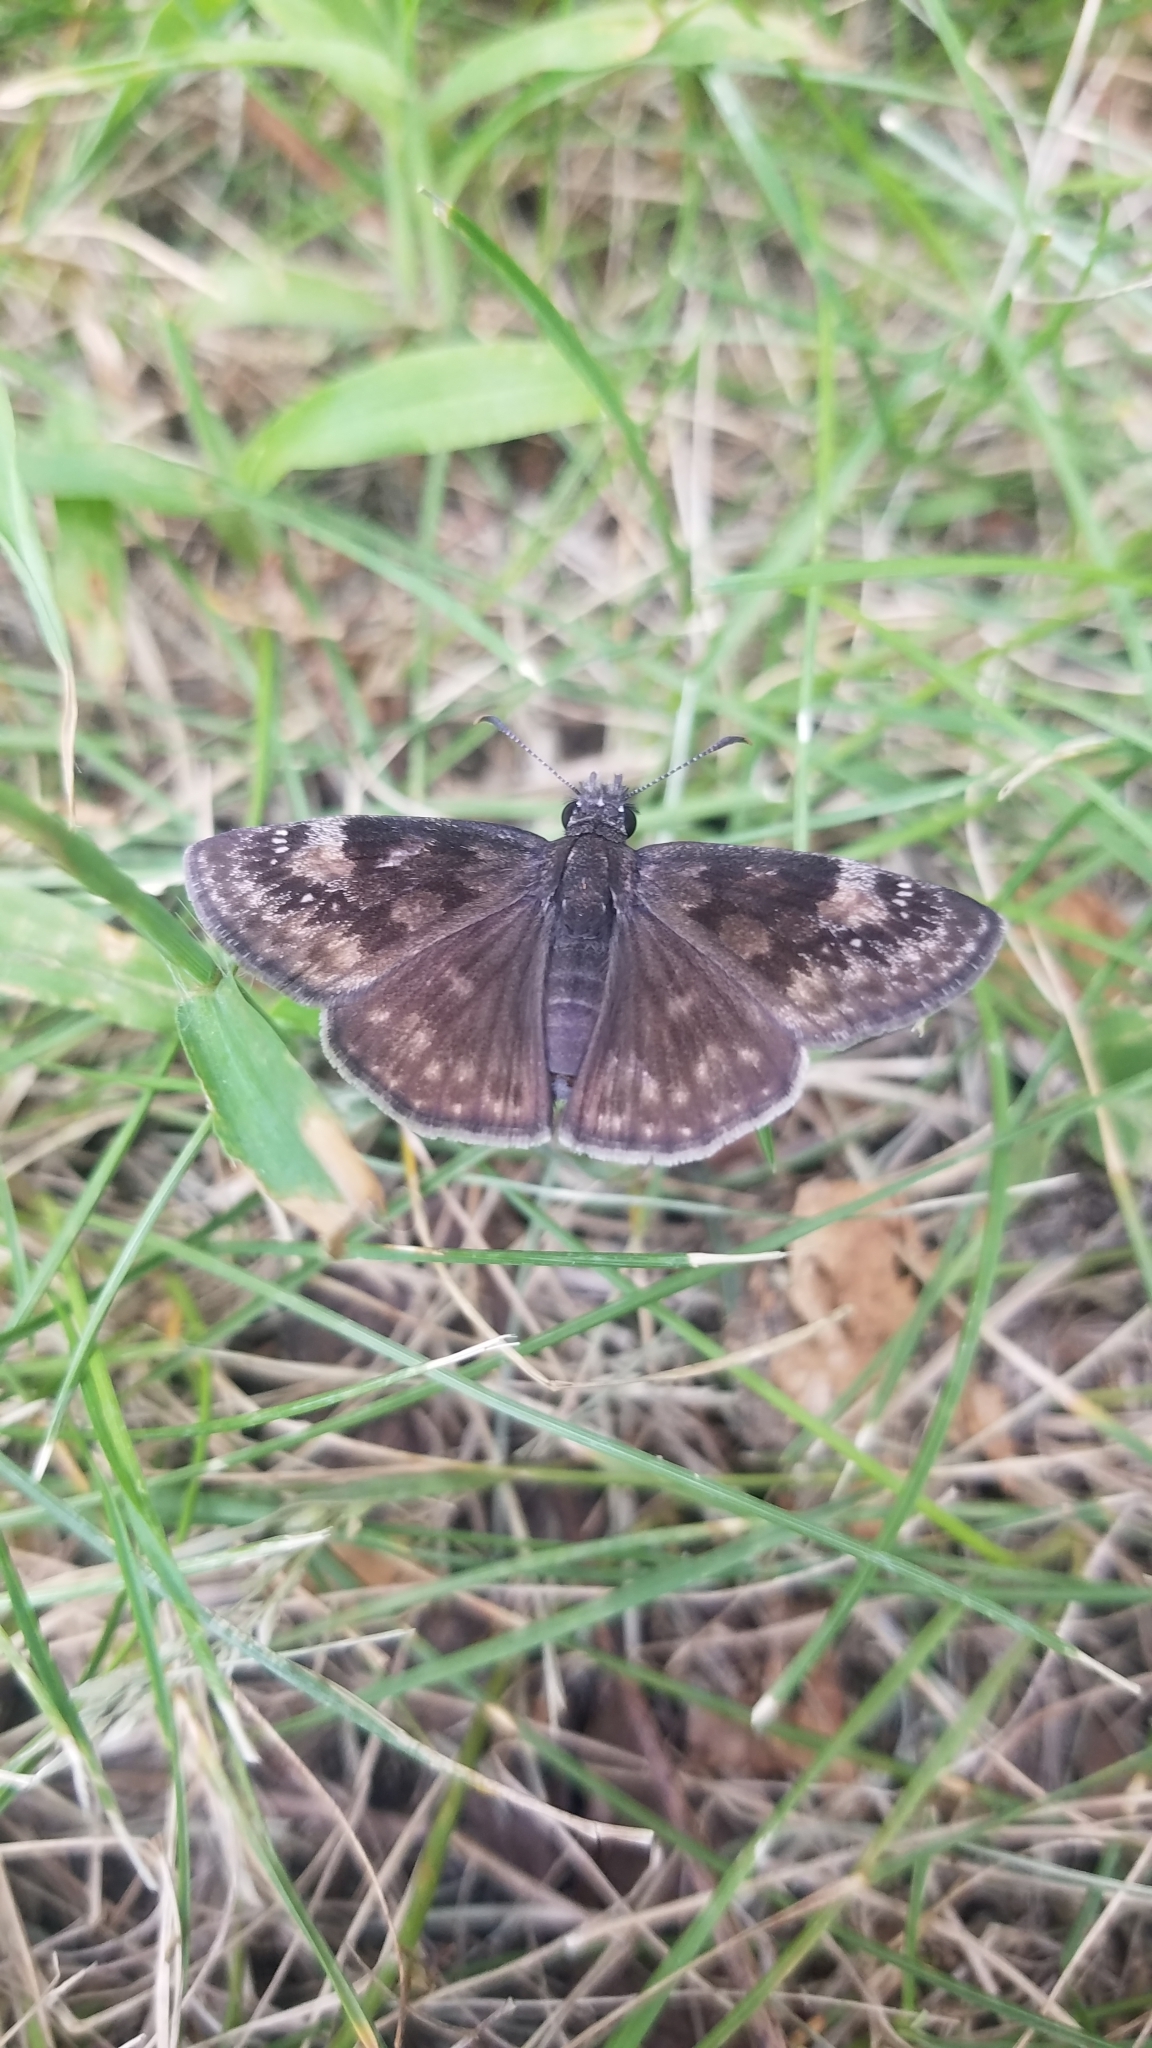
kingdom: Animalia
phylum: Arthropoda
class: Insecta
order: Lepidoptera
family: Hesperiidae
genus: Erynnis
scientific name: Erynnis baptisiae
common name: Wild indigo duskywing
